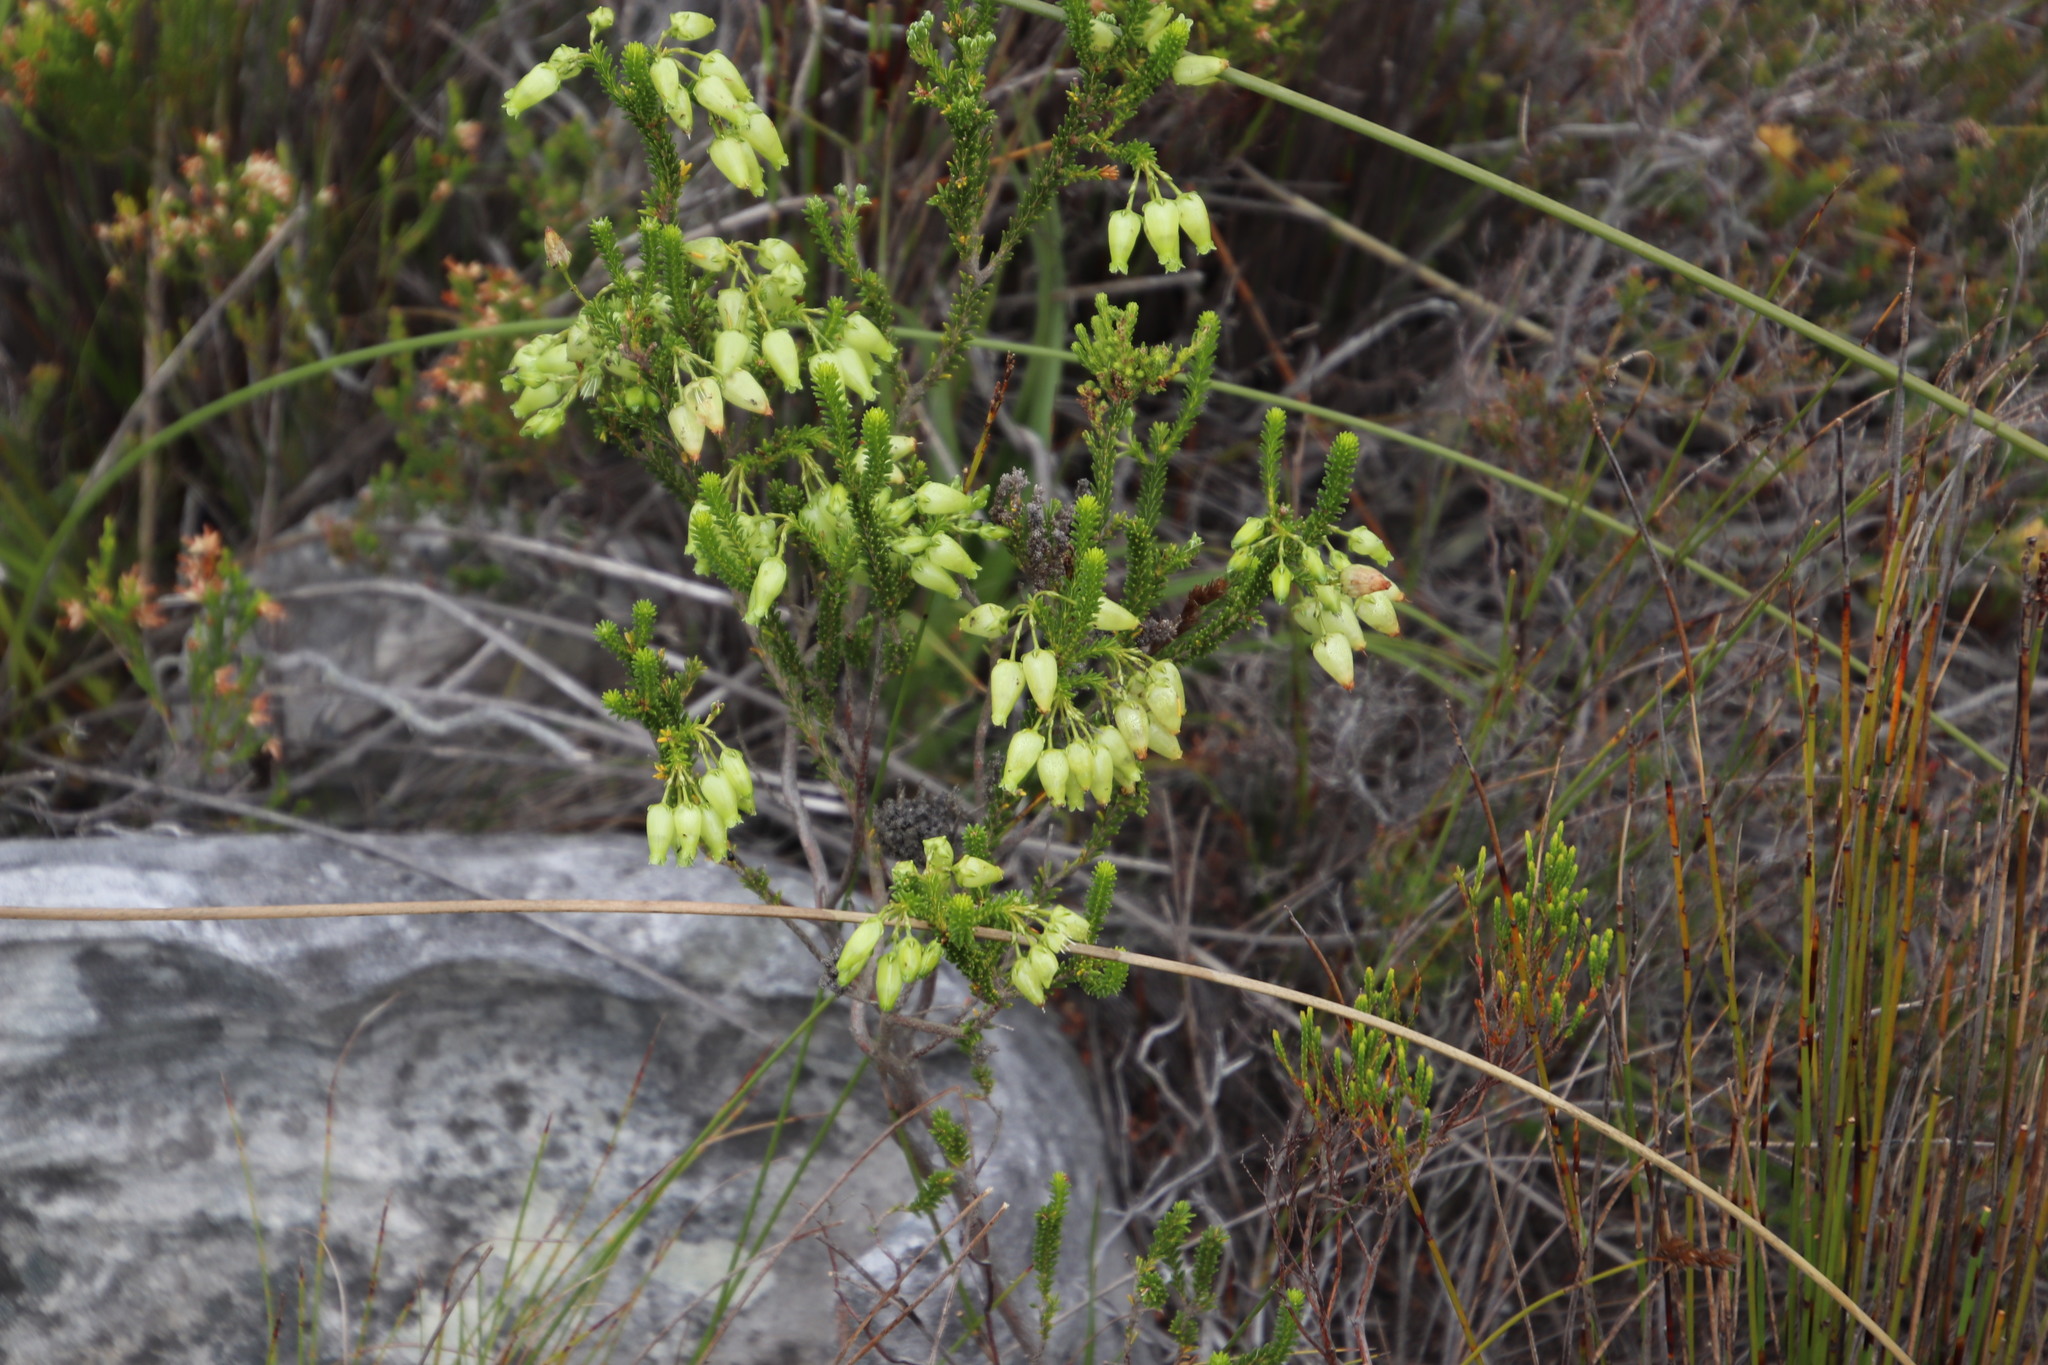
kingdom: Plantae
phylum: Tracheophyta
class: Magnoliopsida
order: Ericales
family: Ericaceae
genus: Erica
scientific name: Erica urna-viridis
